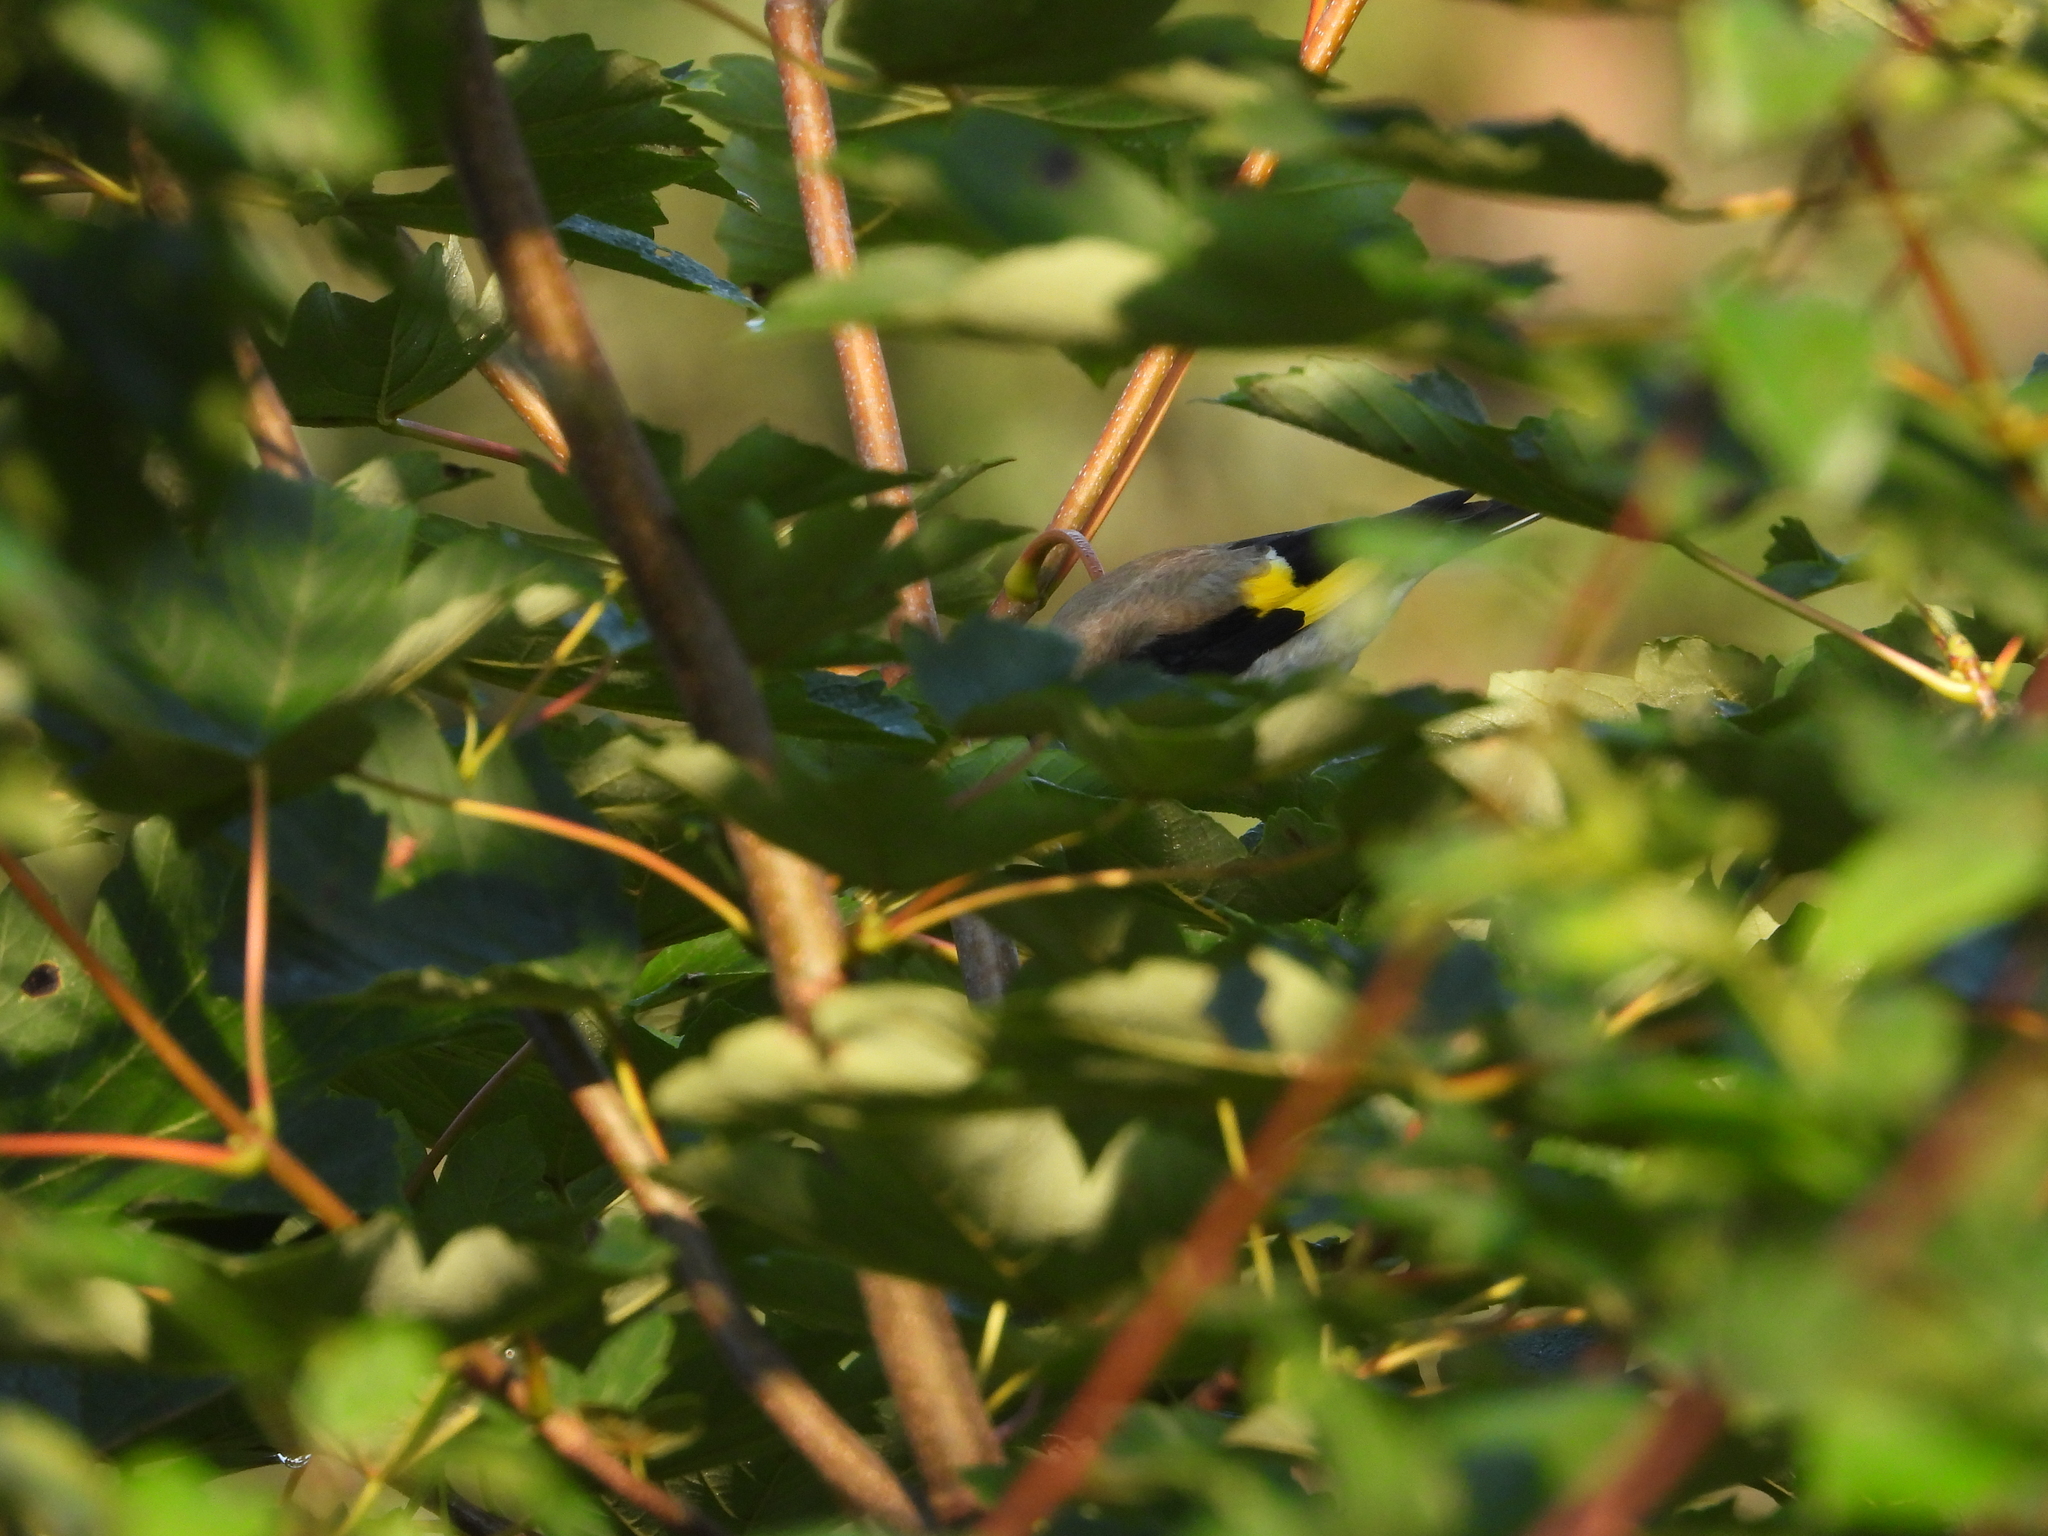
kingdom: Animalia
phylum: Chordata
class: Aves
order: Passeriformes
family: Fringillidae
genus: Carduelis
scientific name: Carduelis carduelis
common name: European goldfinch
